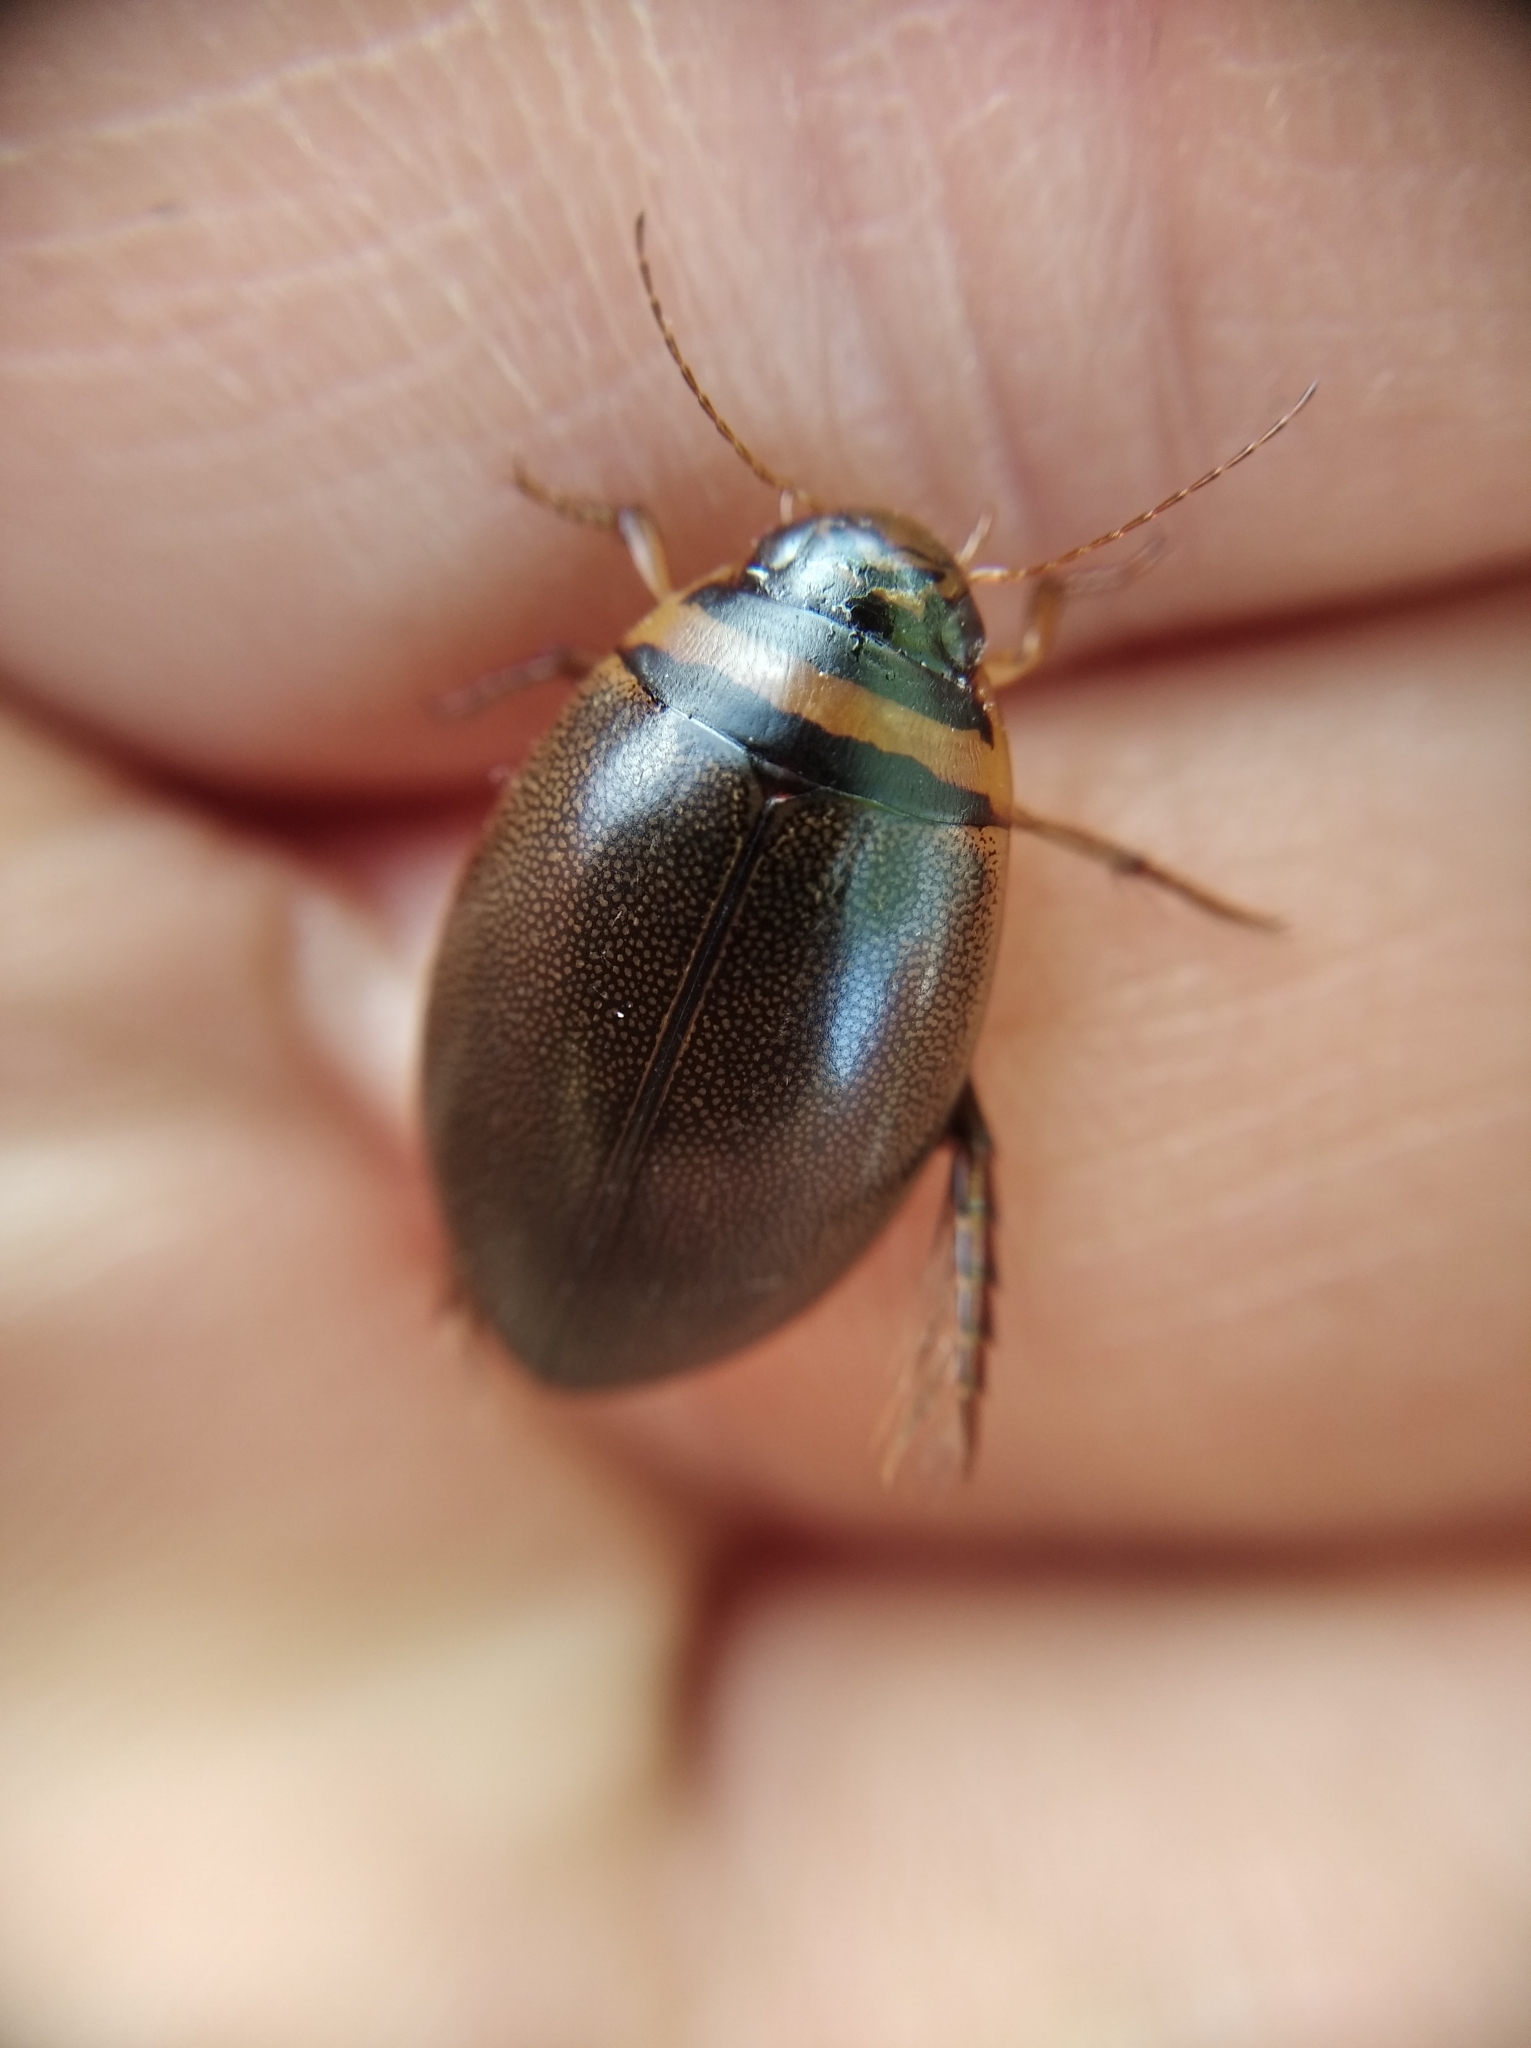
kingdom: Animalia
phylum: Arthropoda
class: Insecta
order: Coleoptera
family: Dytiscidae
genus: Graphoderus
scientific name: Graphoderus austriacus
